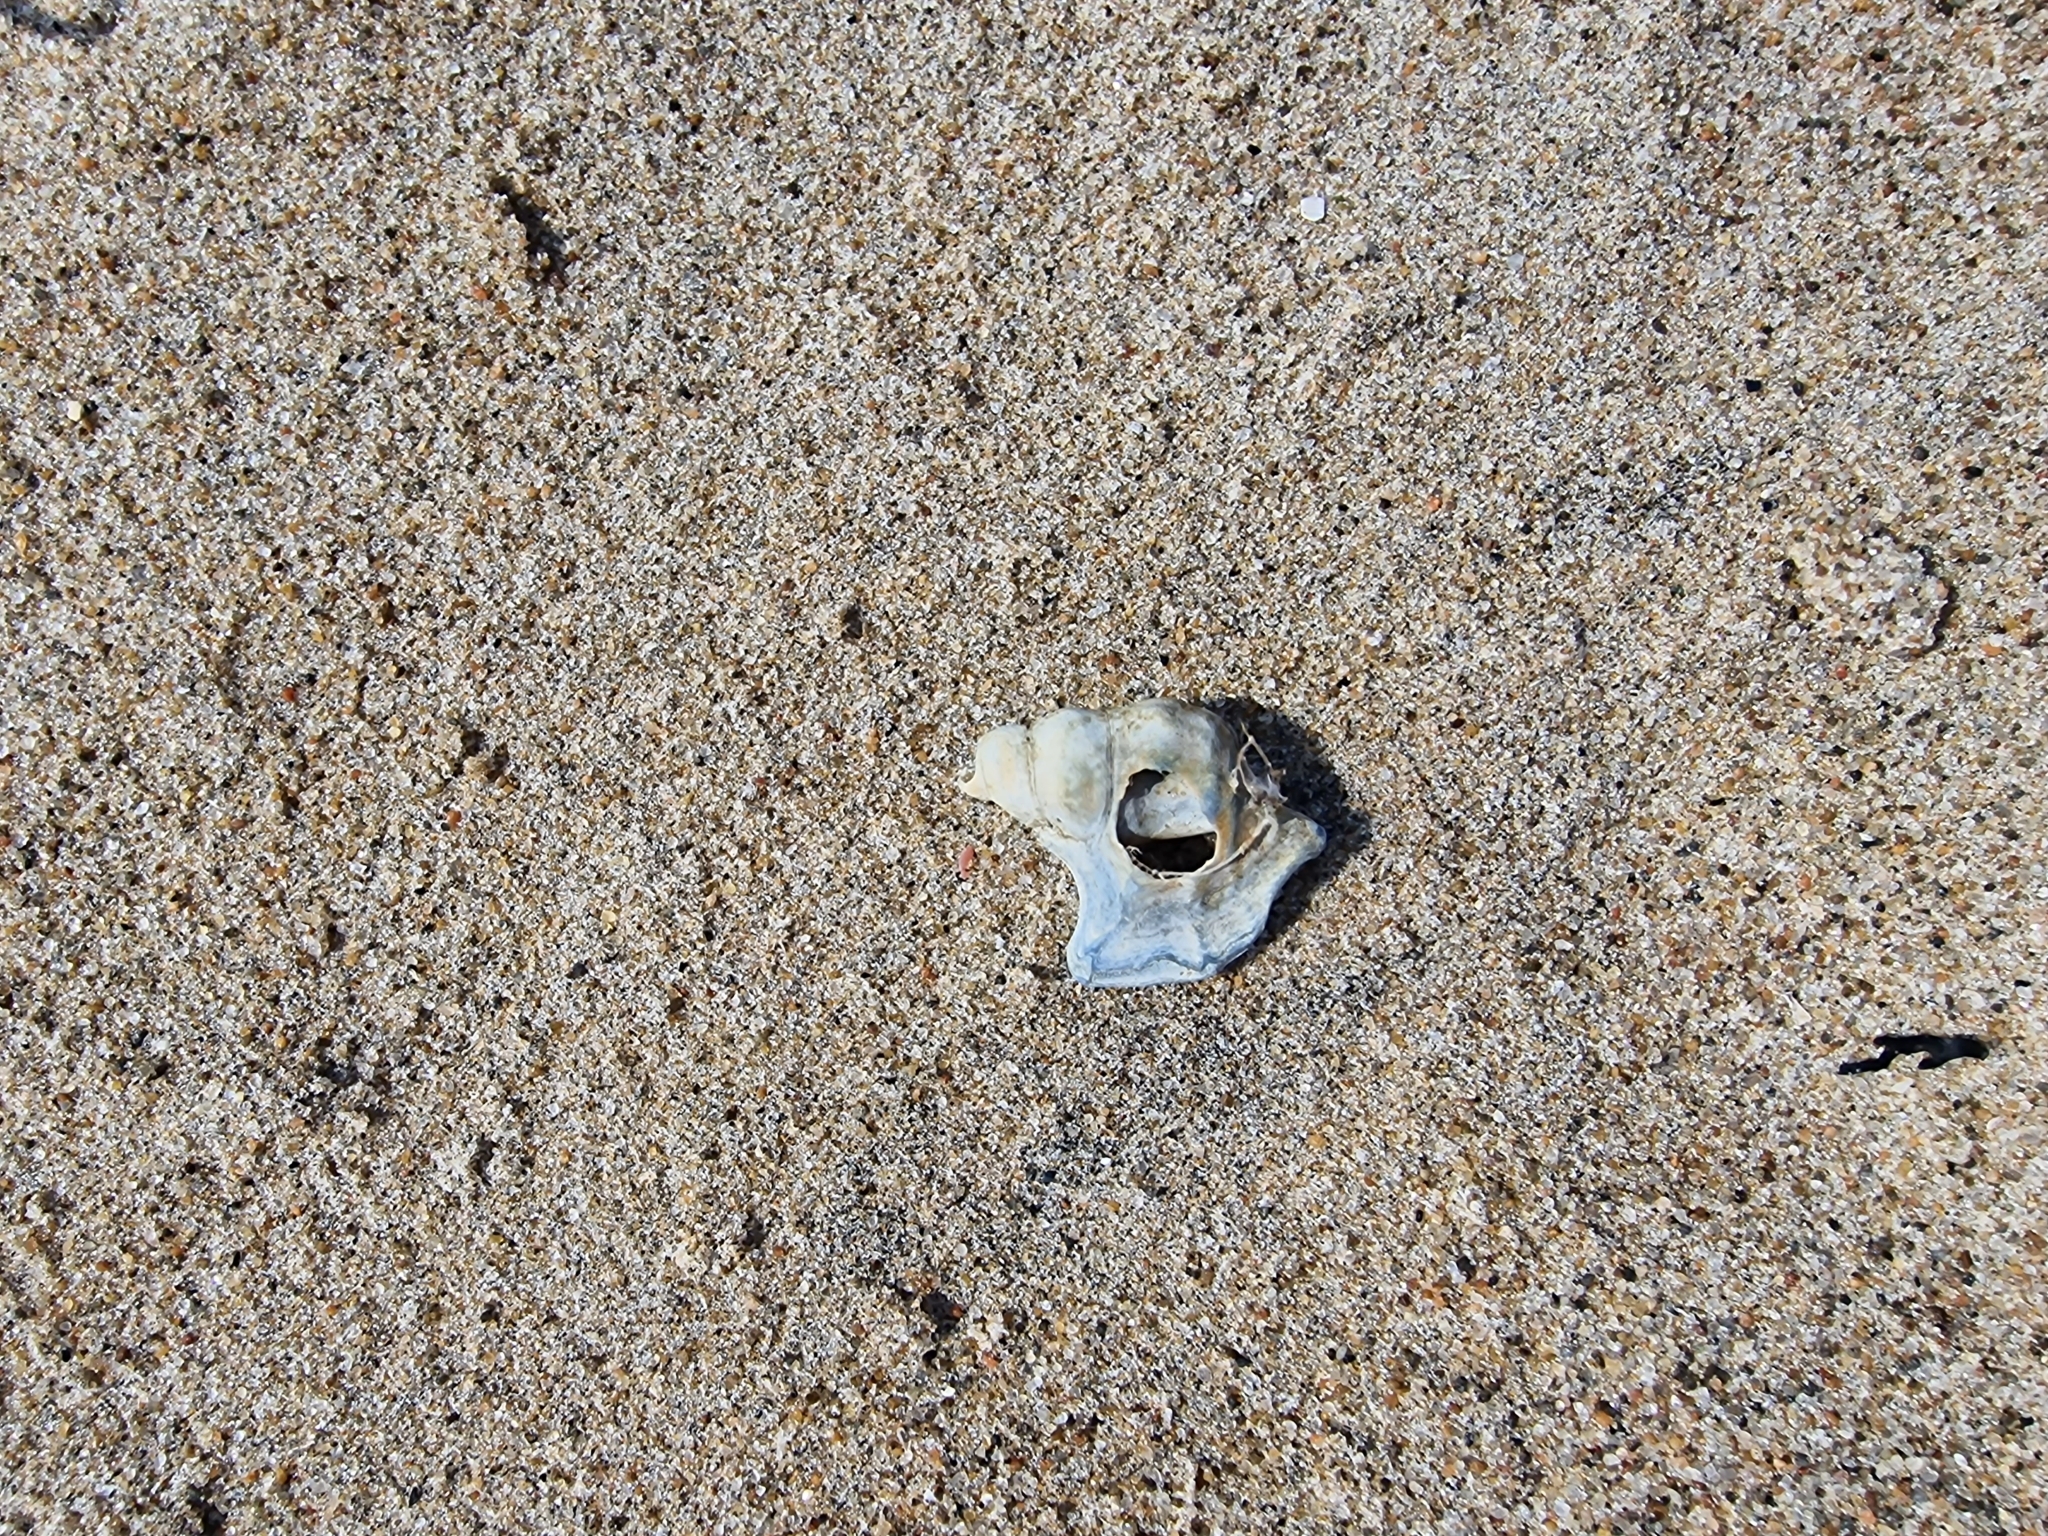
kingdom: Animalia
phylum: Mollusca
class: Gastropoda
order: Littorinimorpha
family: Aporrhaidae
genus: Aporrhais
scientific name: Aporrhais pespelecani
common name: Common pelican’s foot
